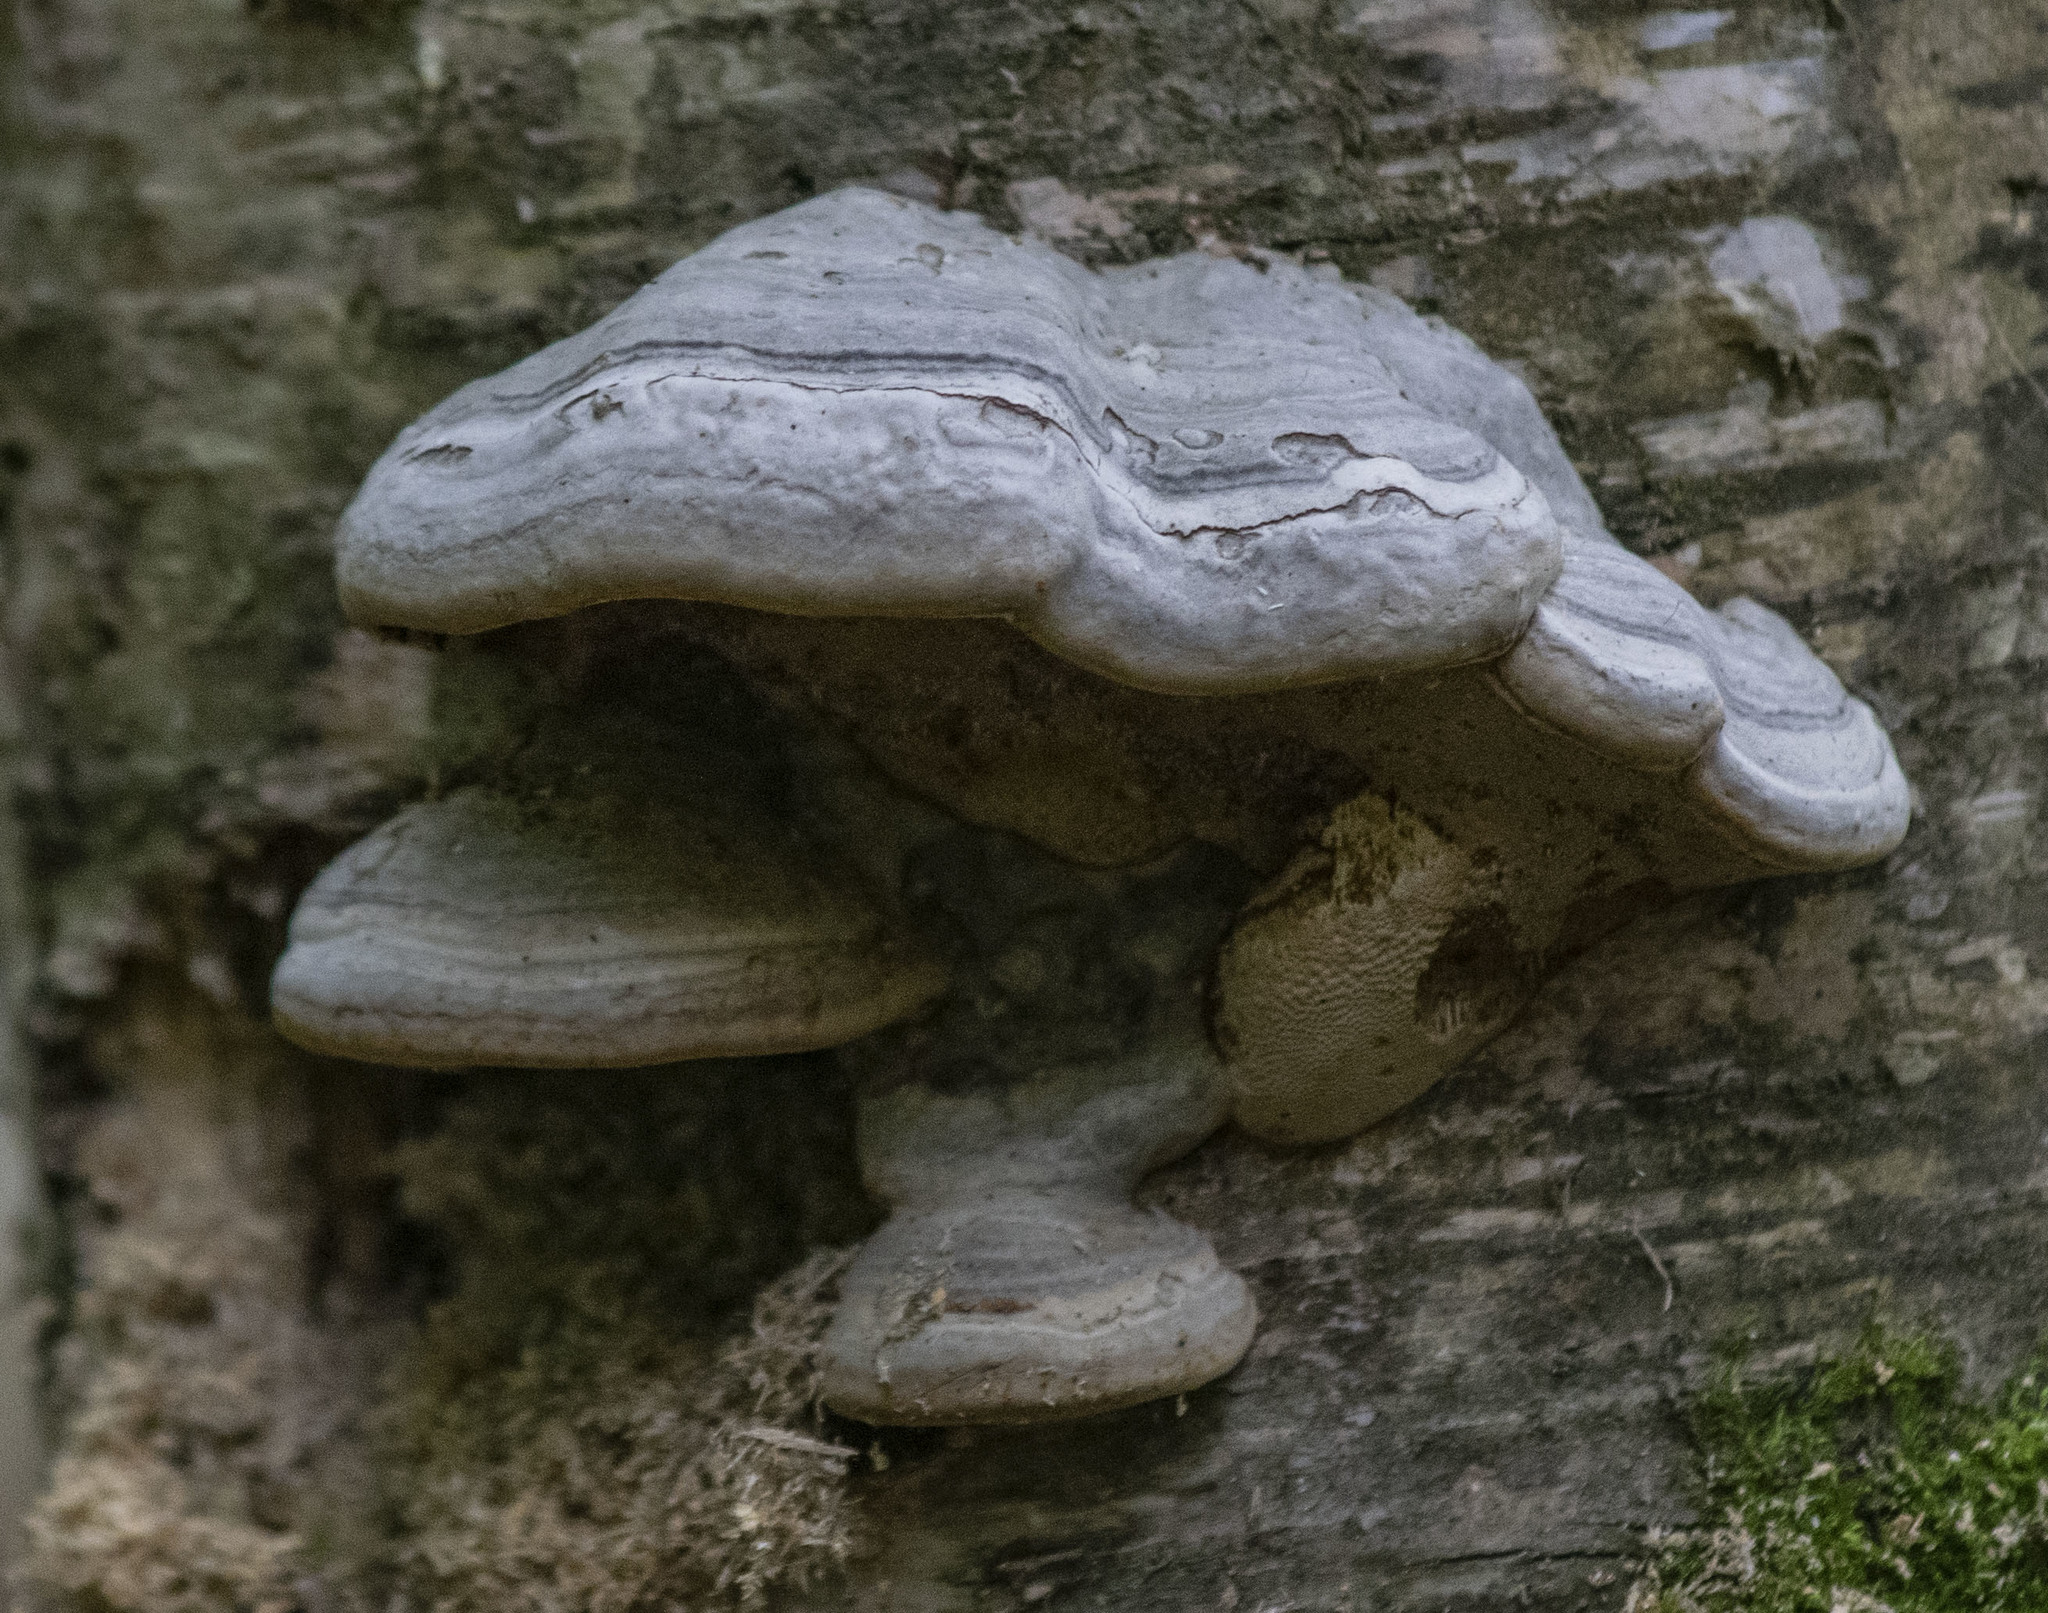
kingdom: Fungi
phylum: Basidiomycota
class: Agaricomycetes
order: Polyporales
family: Polyporaceae
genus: Fomes
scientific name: Fomes fomentarius
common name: Hoof fungus
